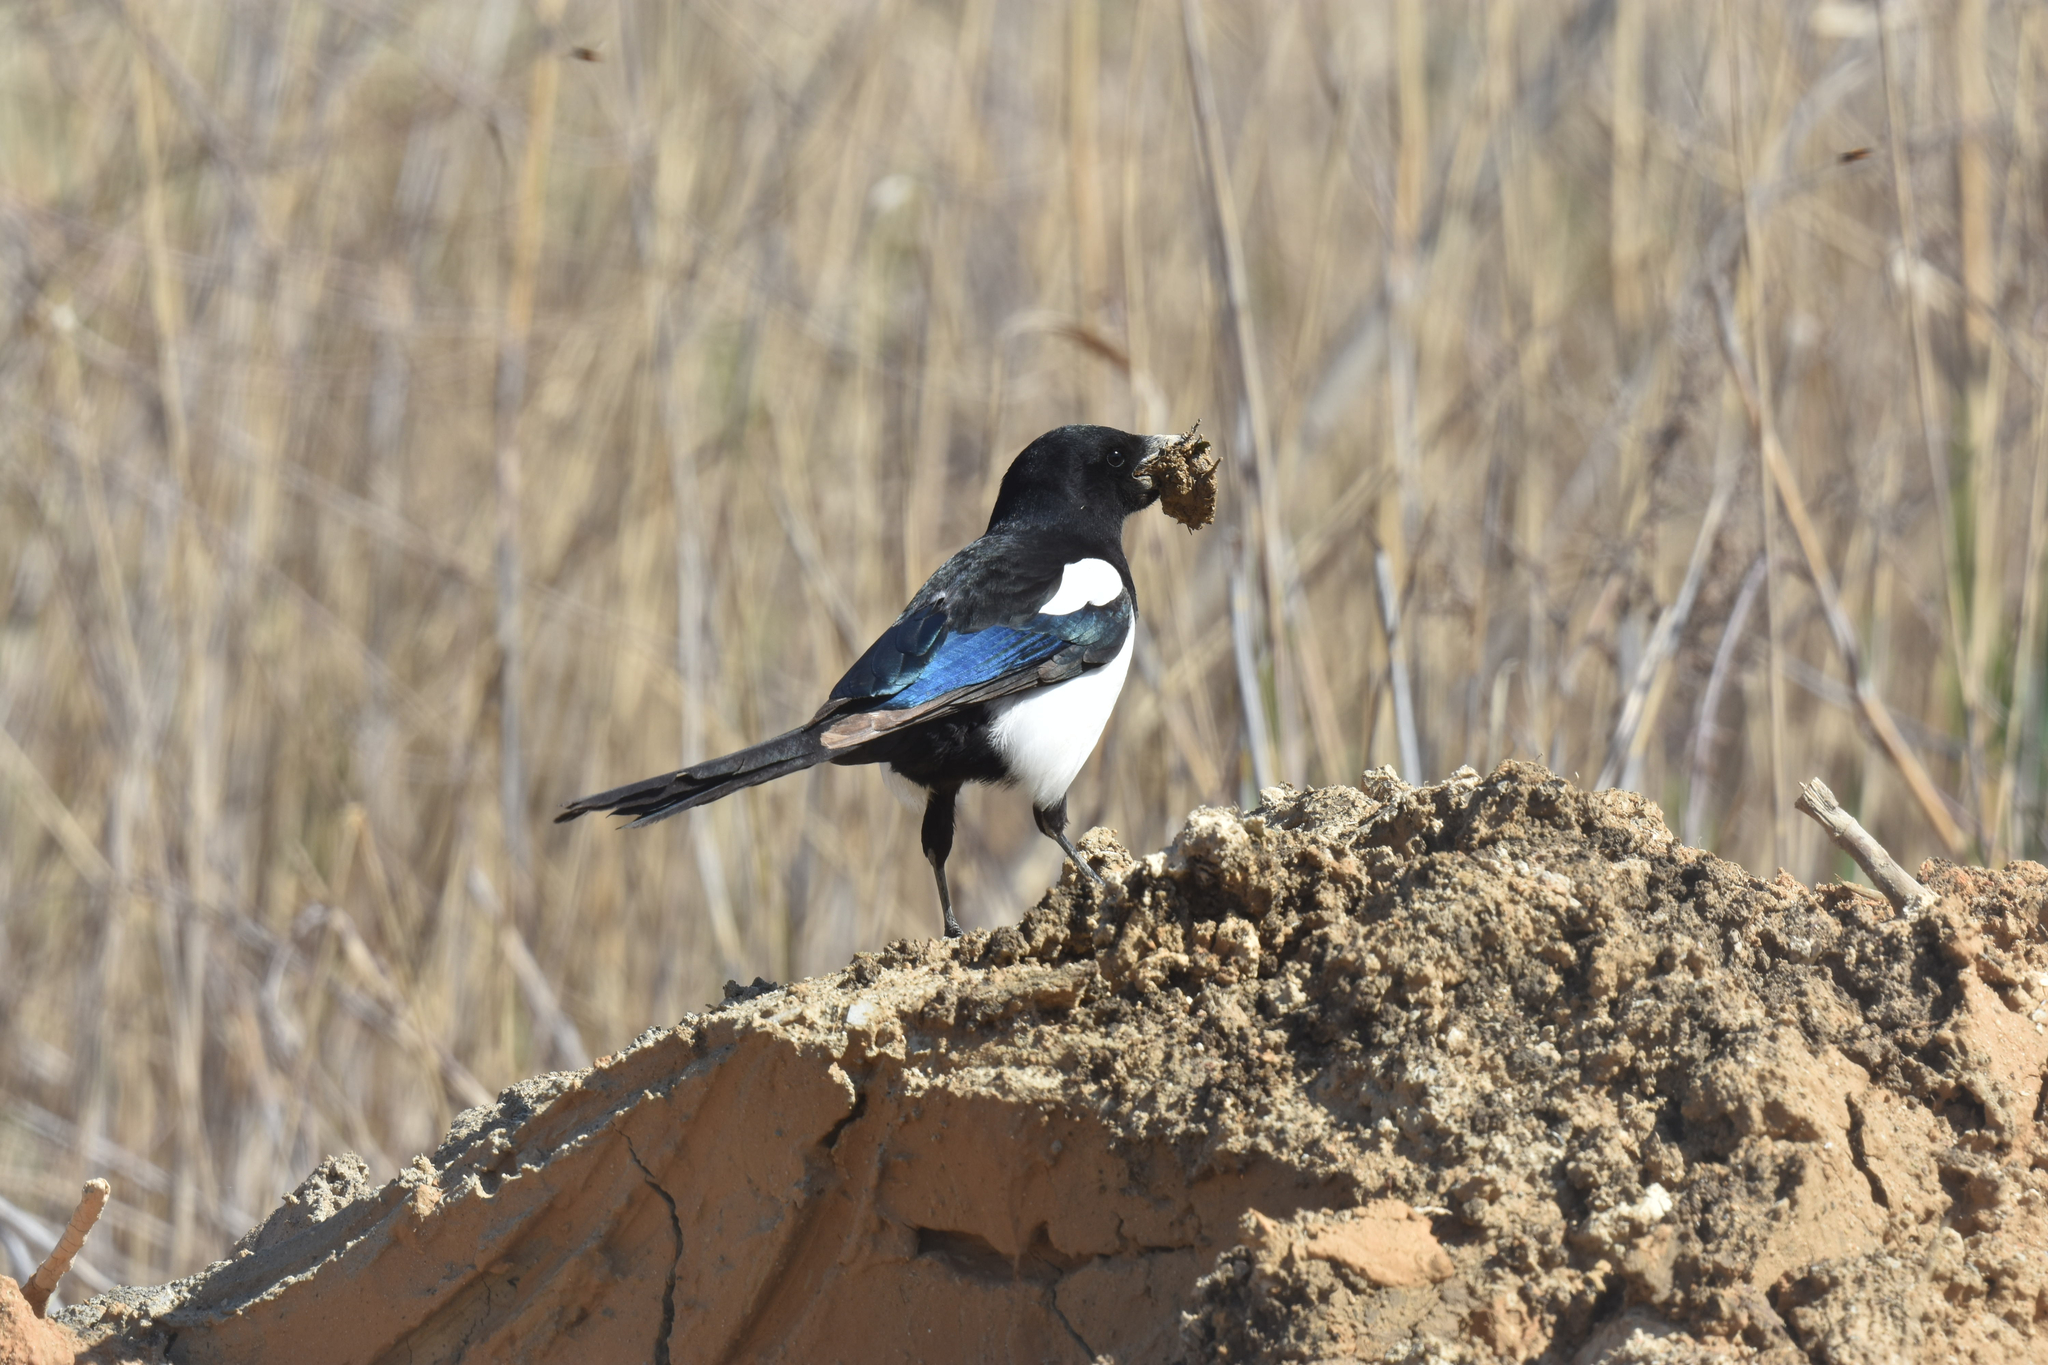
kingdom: Animalia
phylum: Chordata
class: Aves
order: Passeriformes
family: Corvidae
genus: Pica
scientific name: Pica pica
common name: Eurasian magpie
